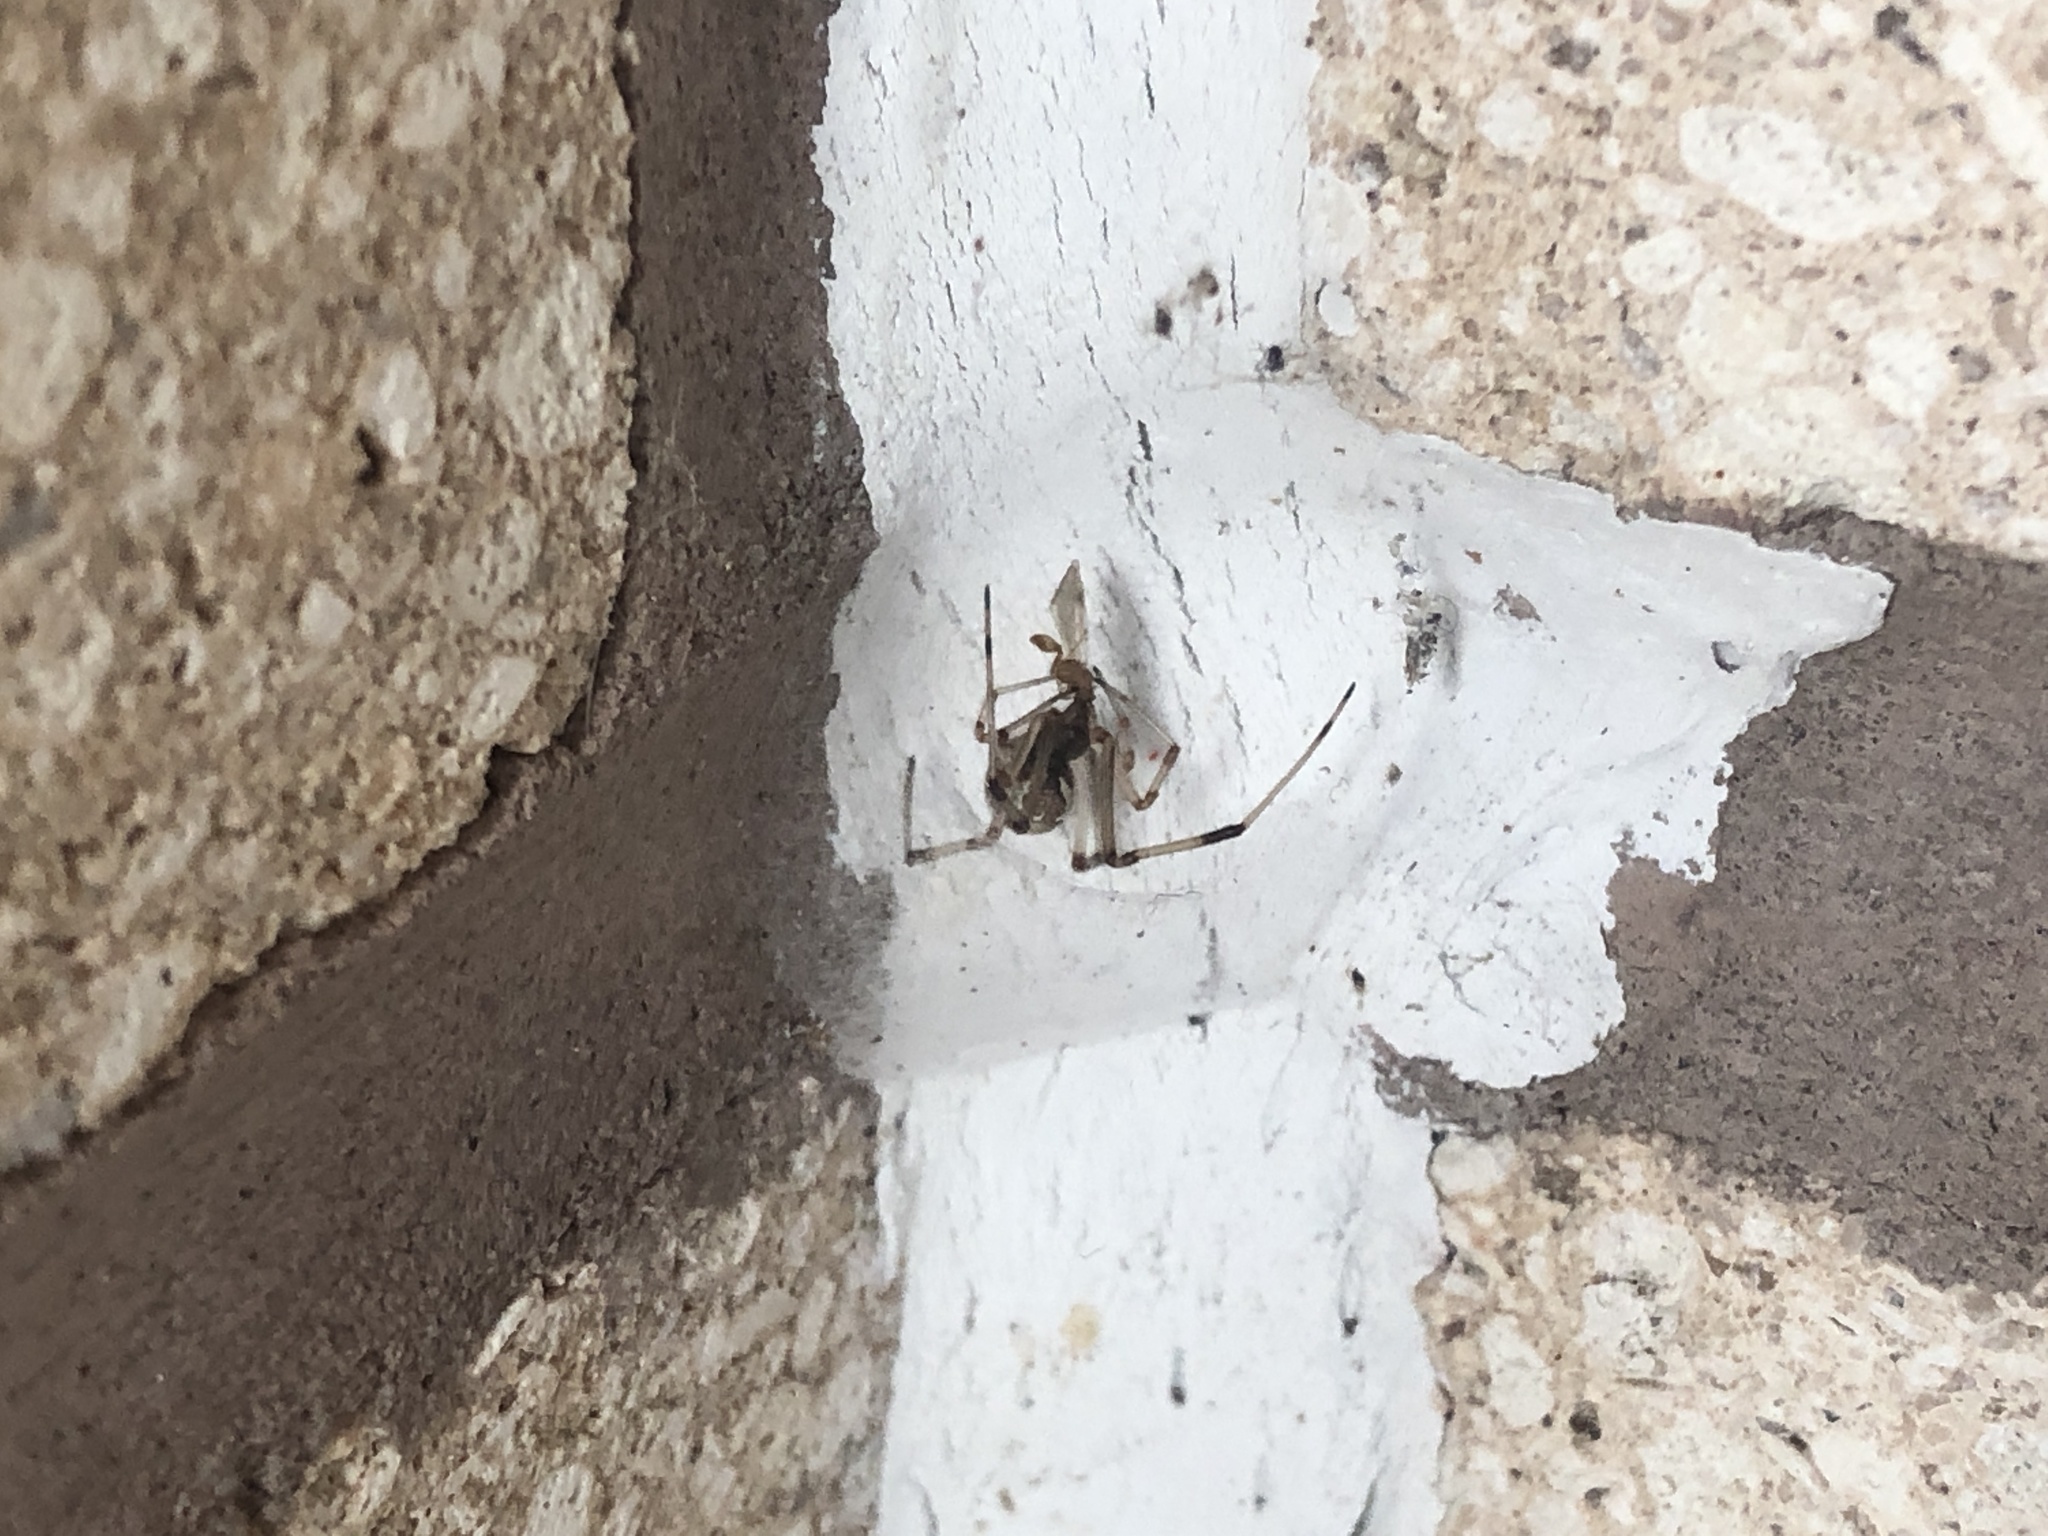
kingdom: Animalia
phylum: Arthropoda
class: Arachnida
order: Araneae
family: Theridiidae
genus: Latrodectus
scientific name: Latrodectus geometricus
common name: Brown widow spider
